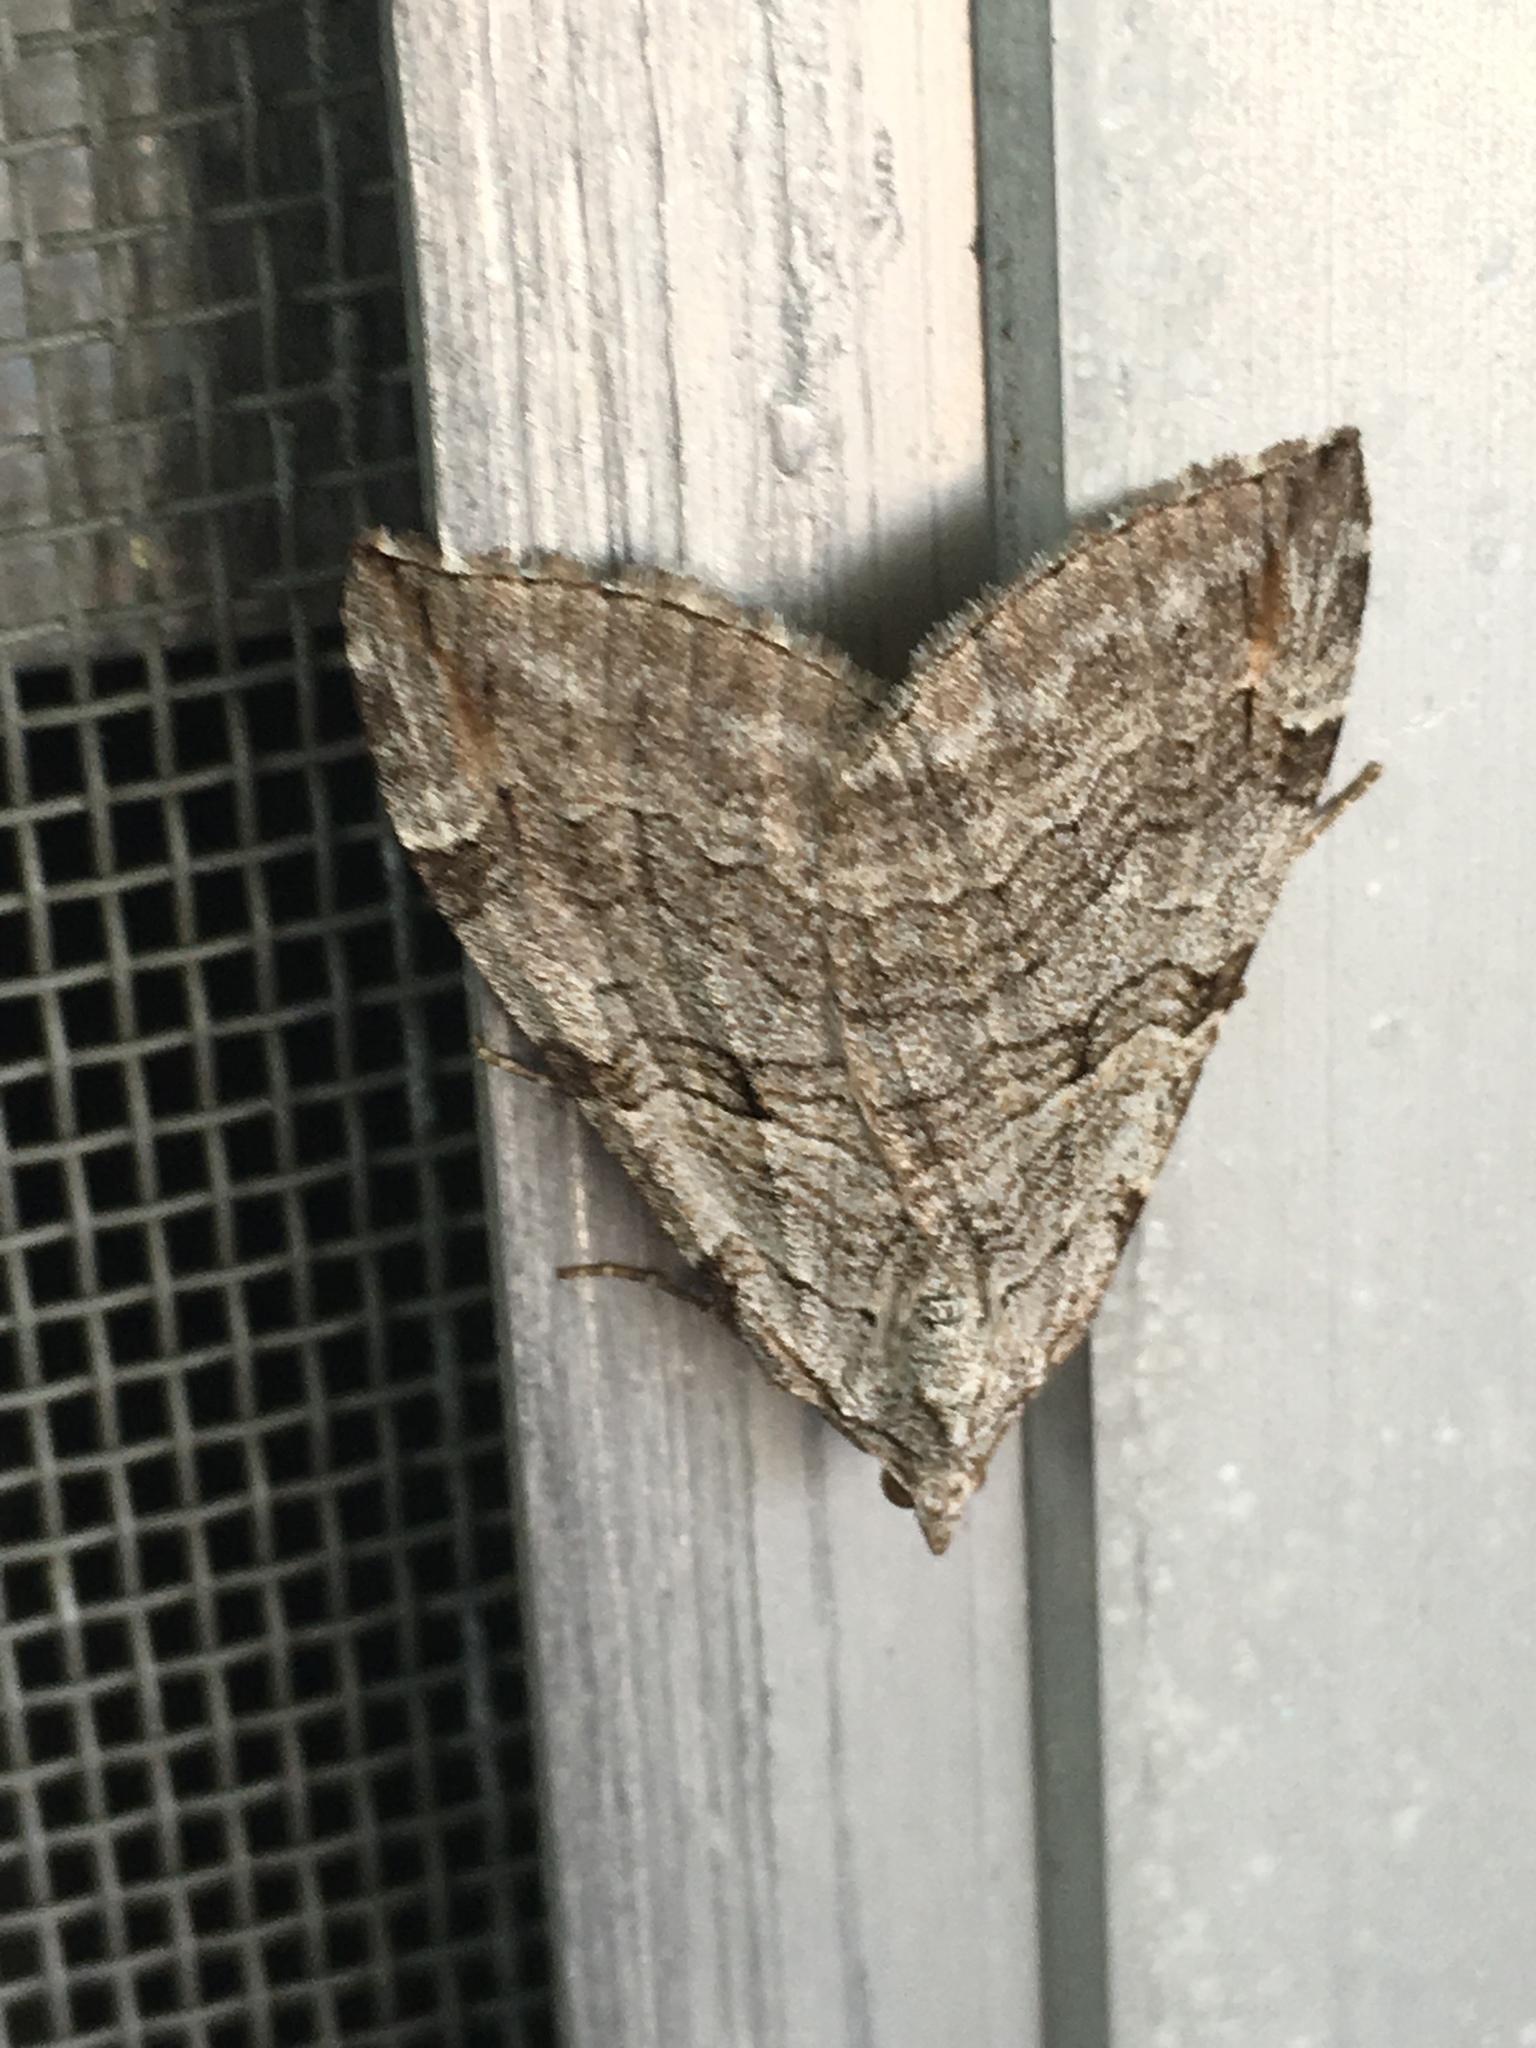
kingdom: Animalia
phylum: Arthropoda
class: Insecta
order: Lepidoptera
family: Geometridae
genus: Aplocera
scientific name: Aplocera plagiata
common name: Treble-bar
